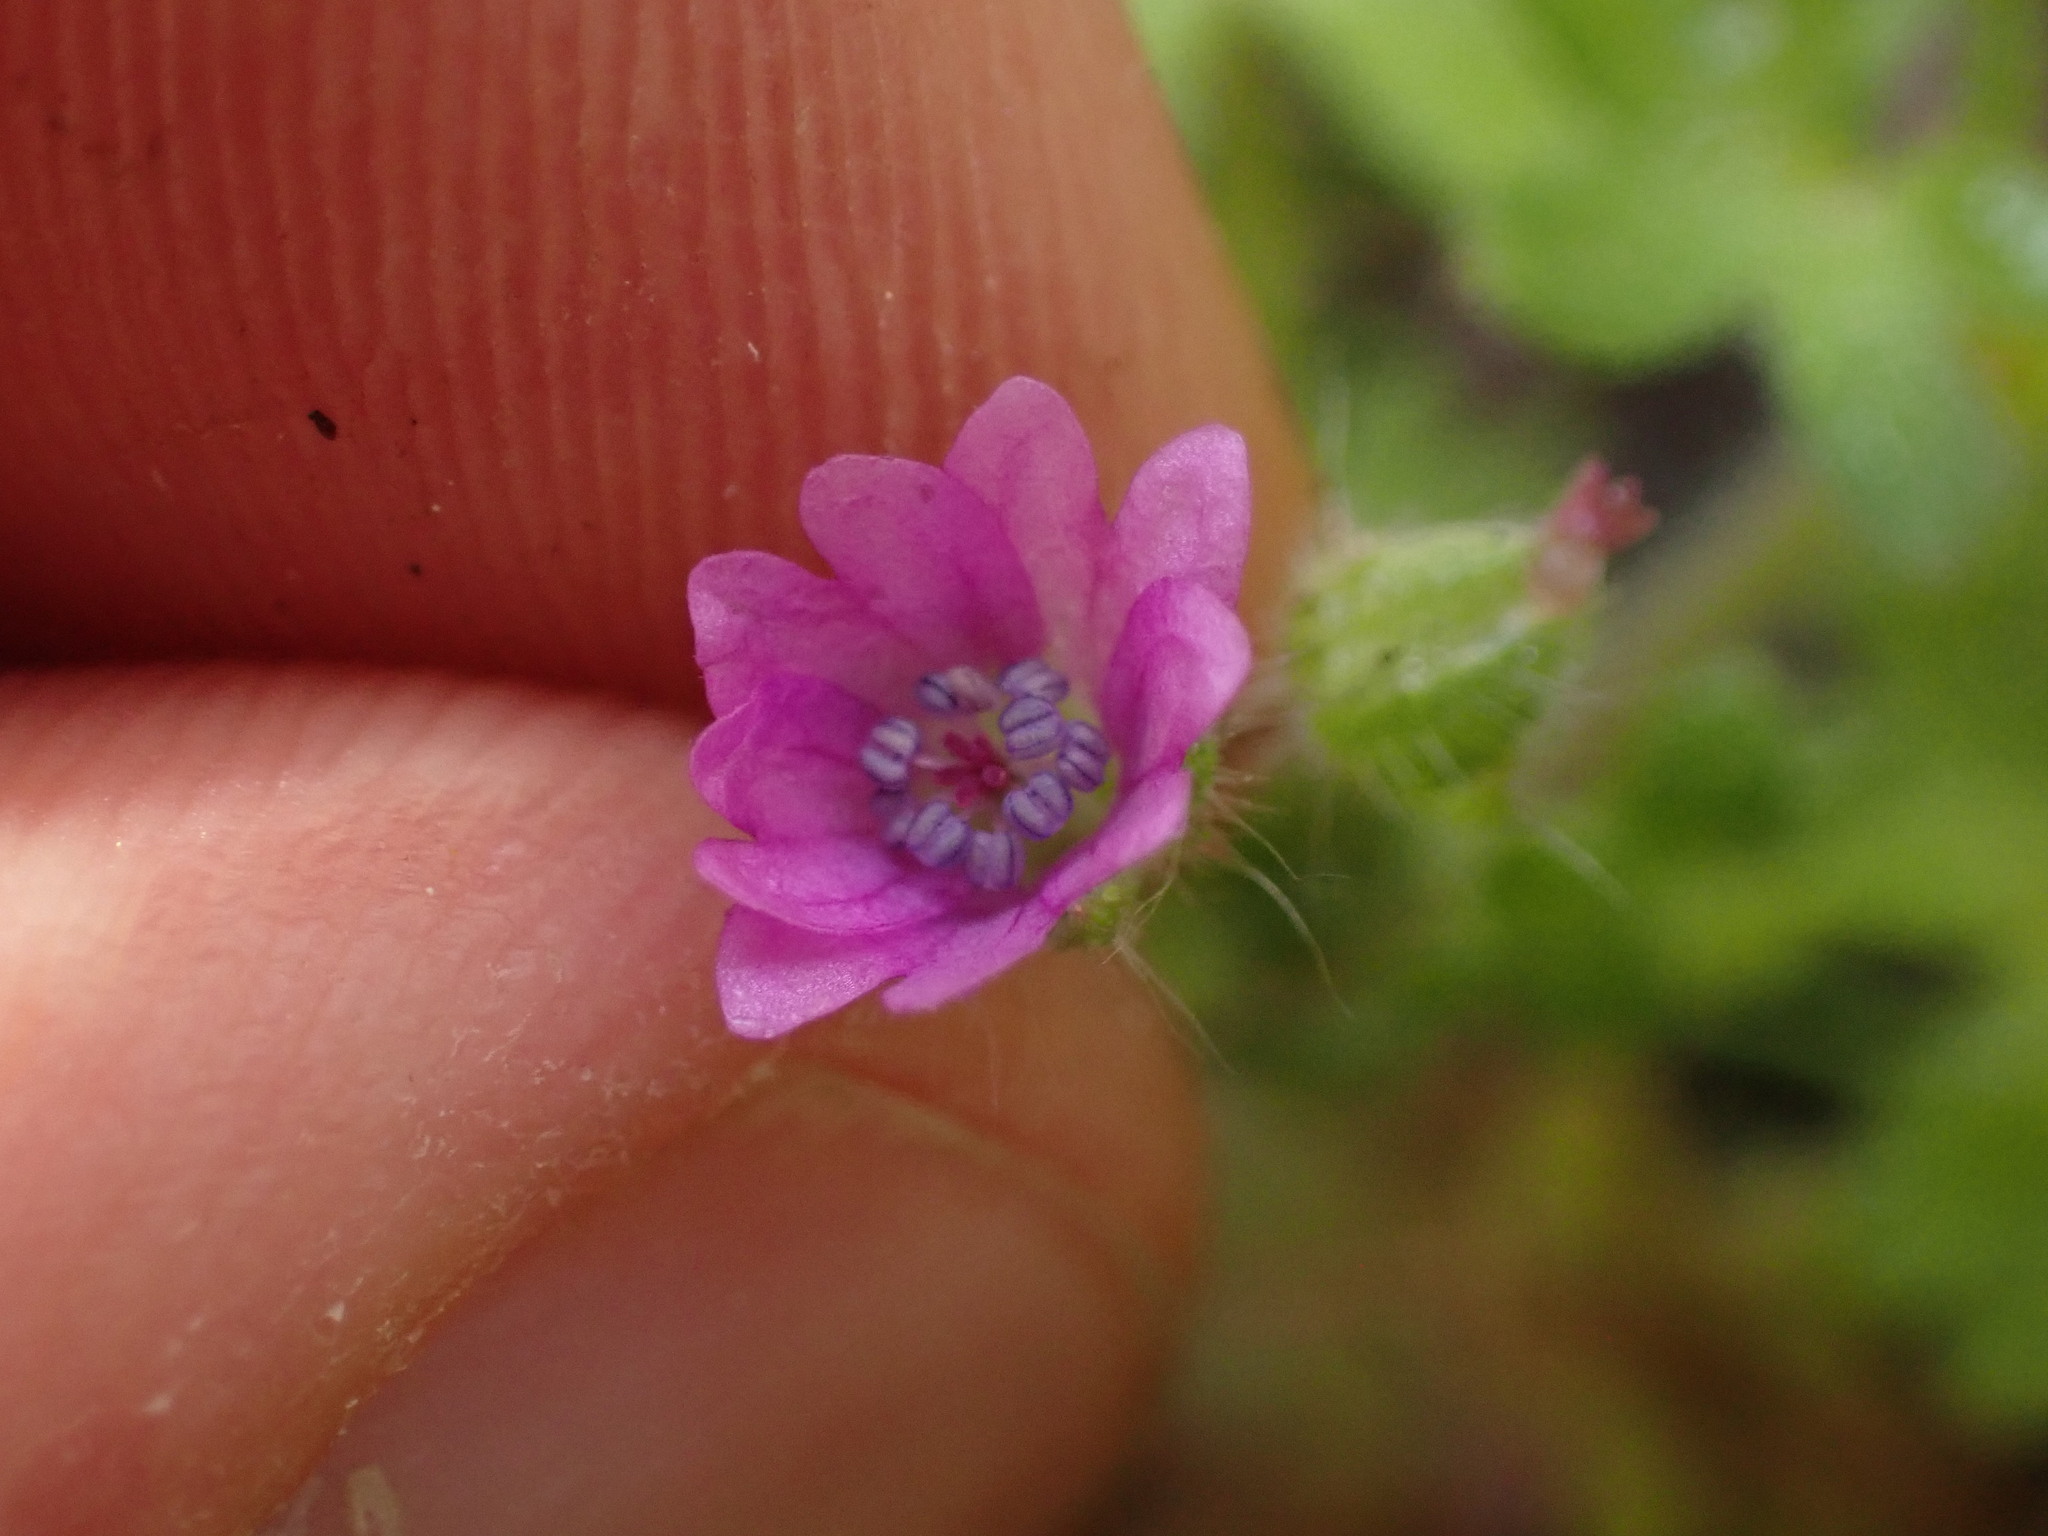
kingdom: Plantae
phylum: Tracheophyta
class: Magnoliopsida
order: Geraniales
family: Geraniaceae
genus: Geranium
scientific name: Geranium molle
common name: Dove's-foot crane's-bill
